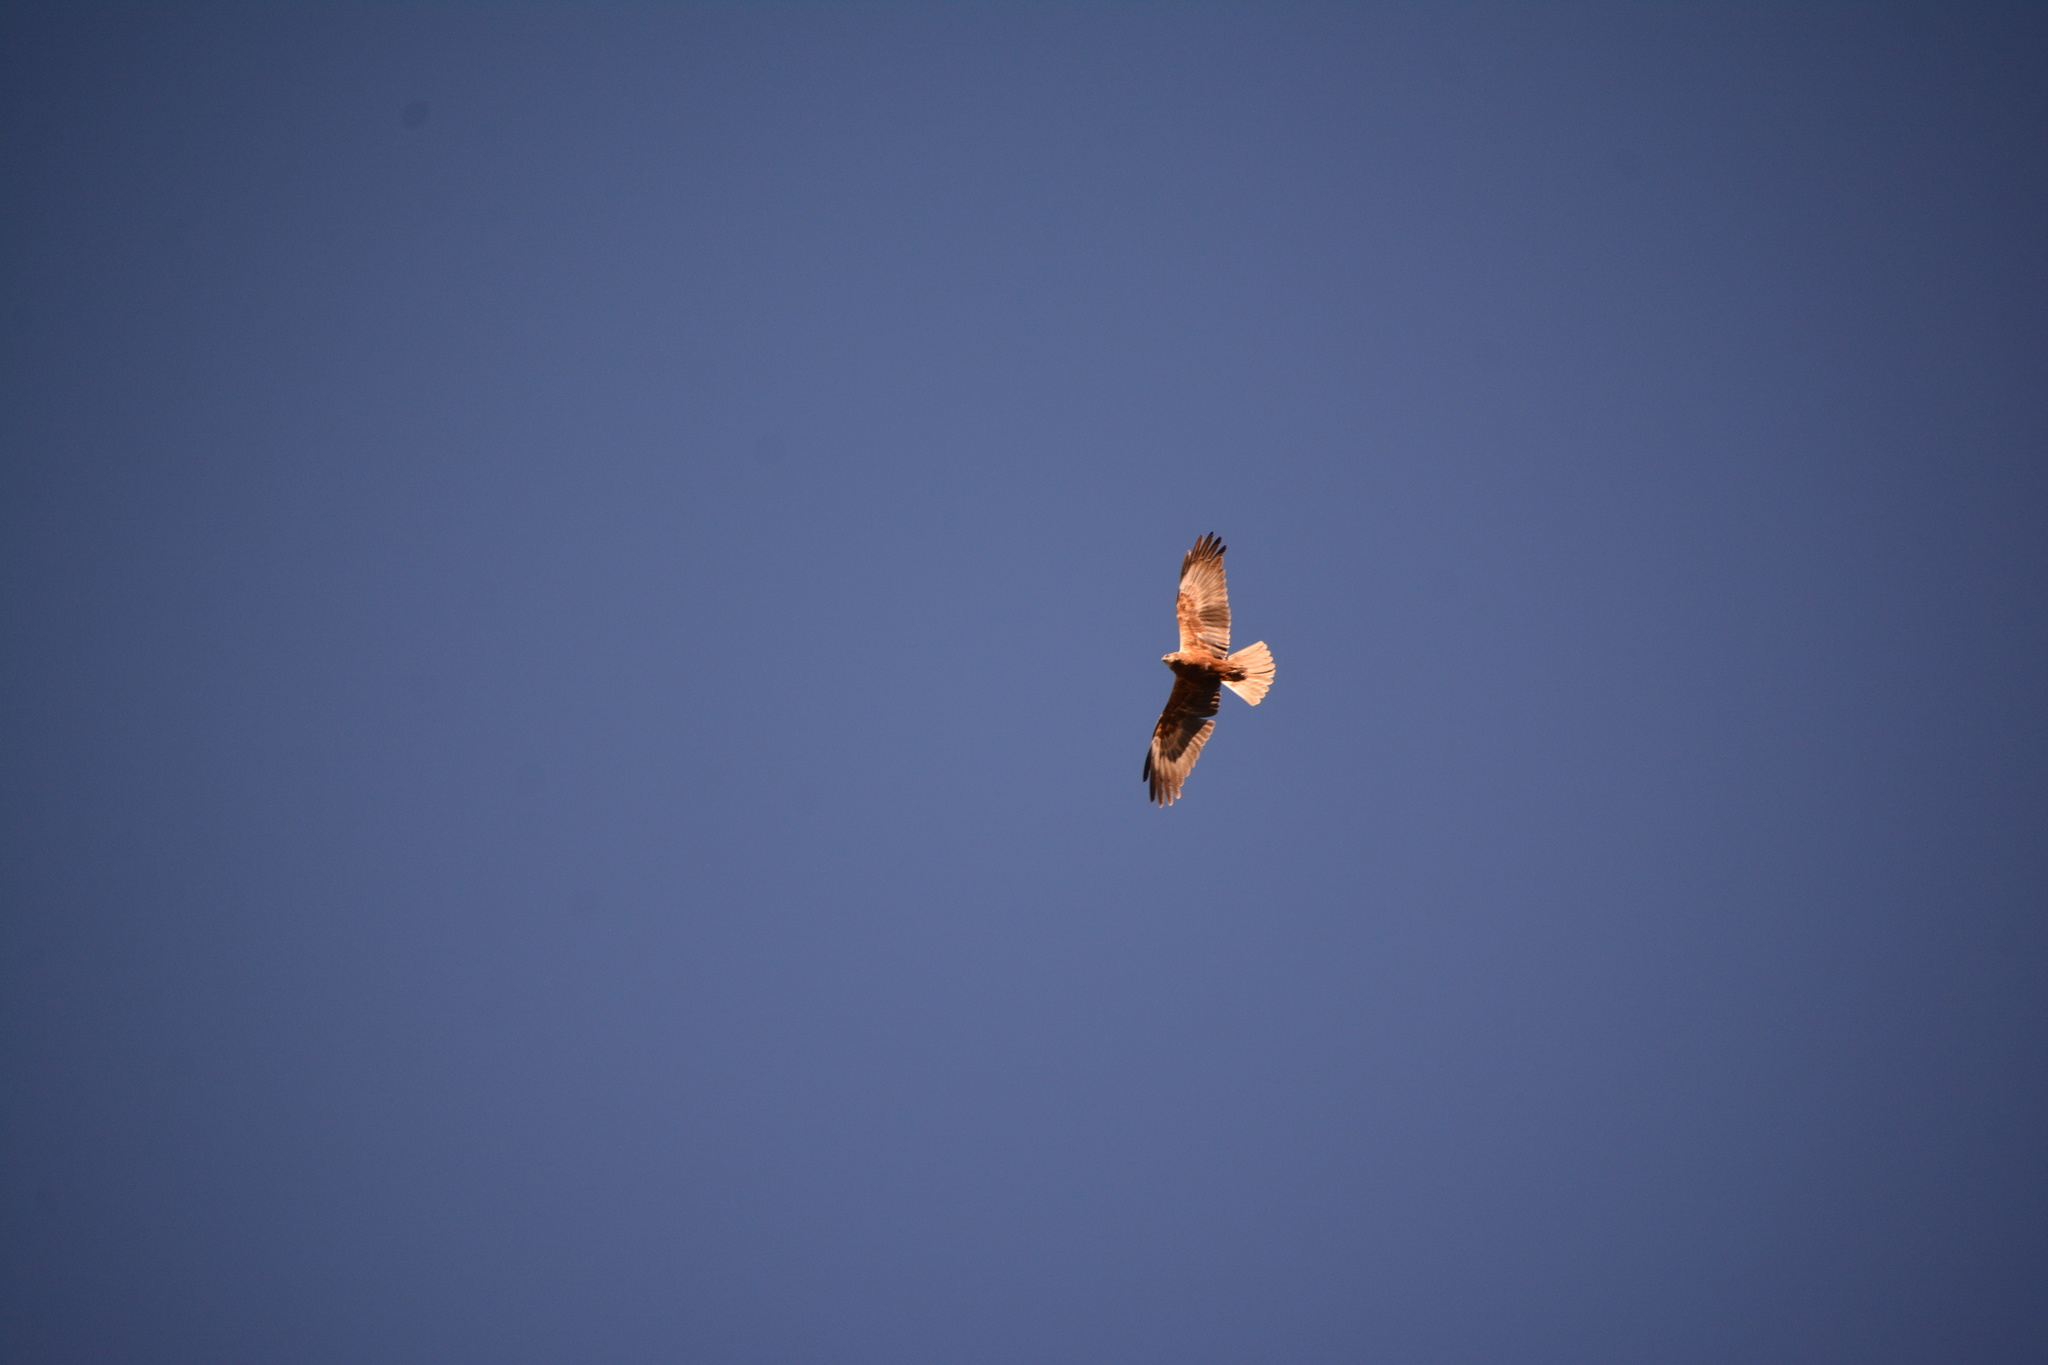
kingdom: Animalia
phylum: Chordata
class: Aves
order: Accipitriformes
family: Accipitridae
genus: Circus
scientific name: Circus aeruginosus
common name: Western marsh harrier
